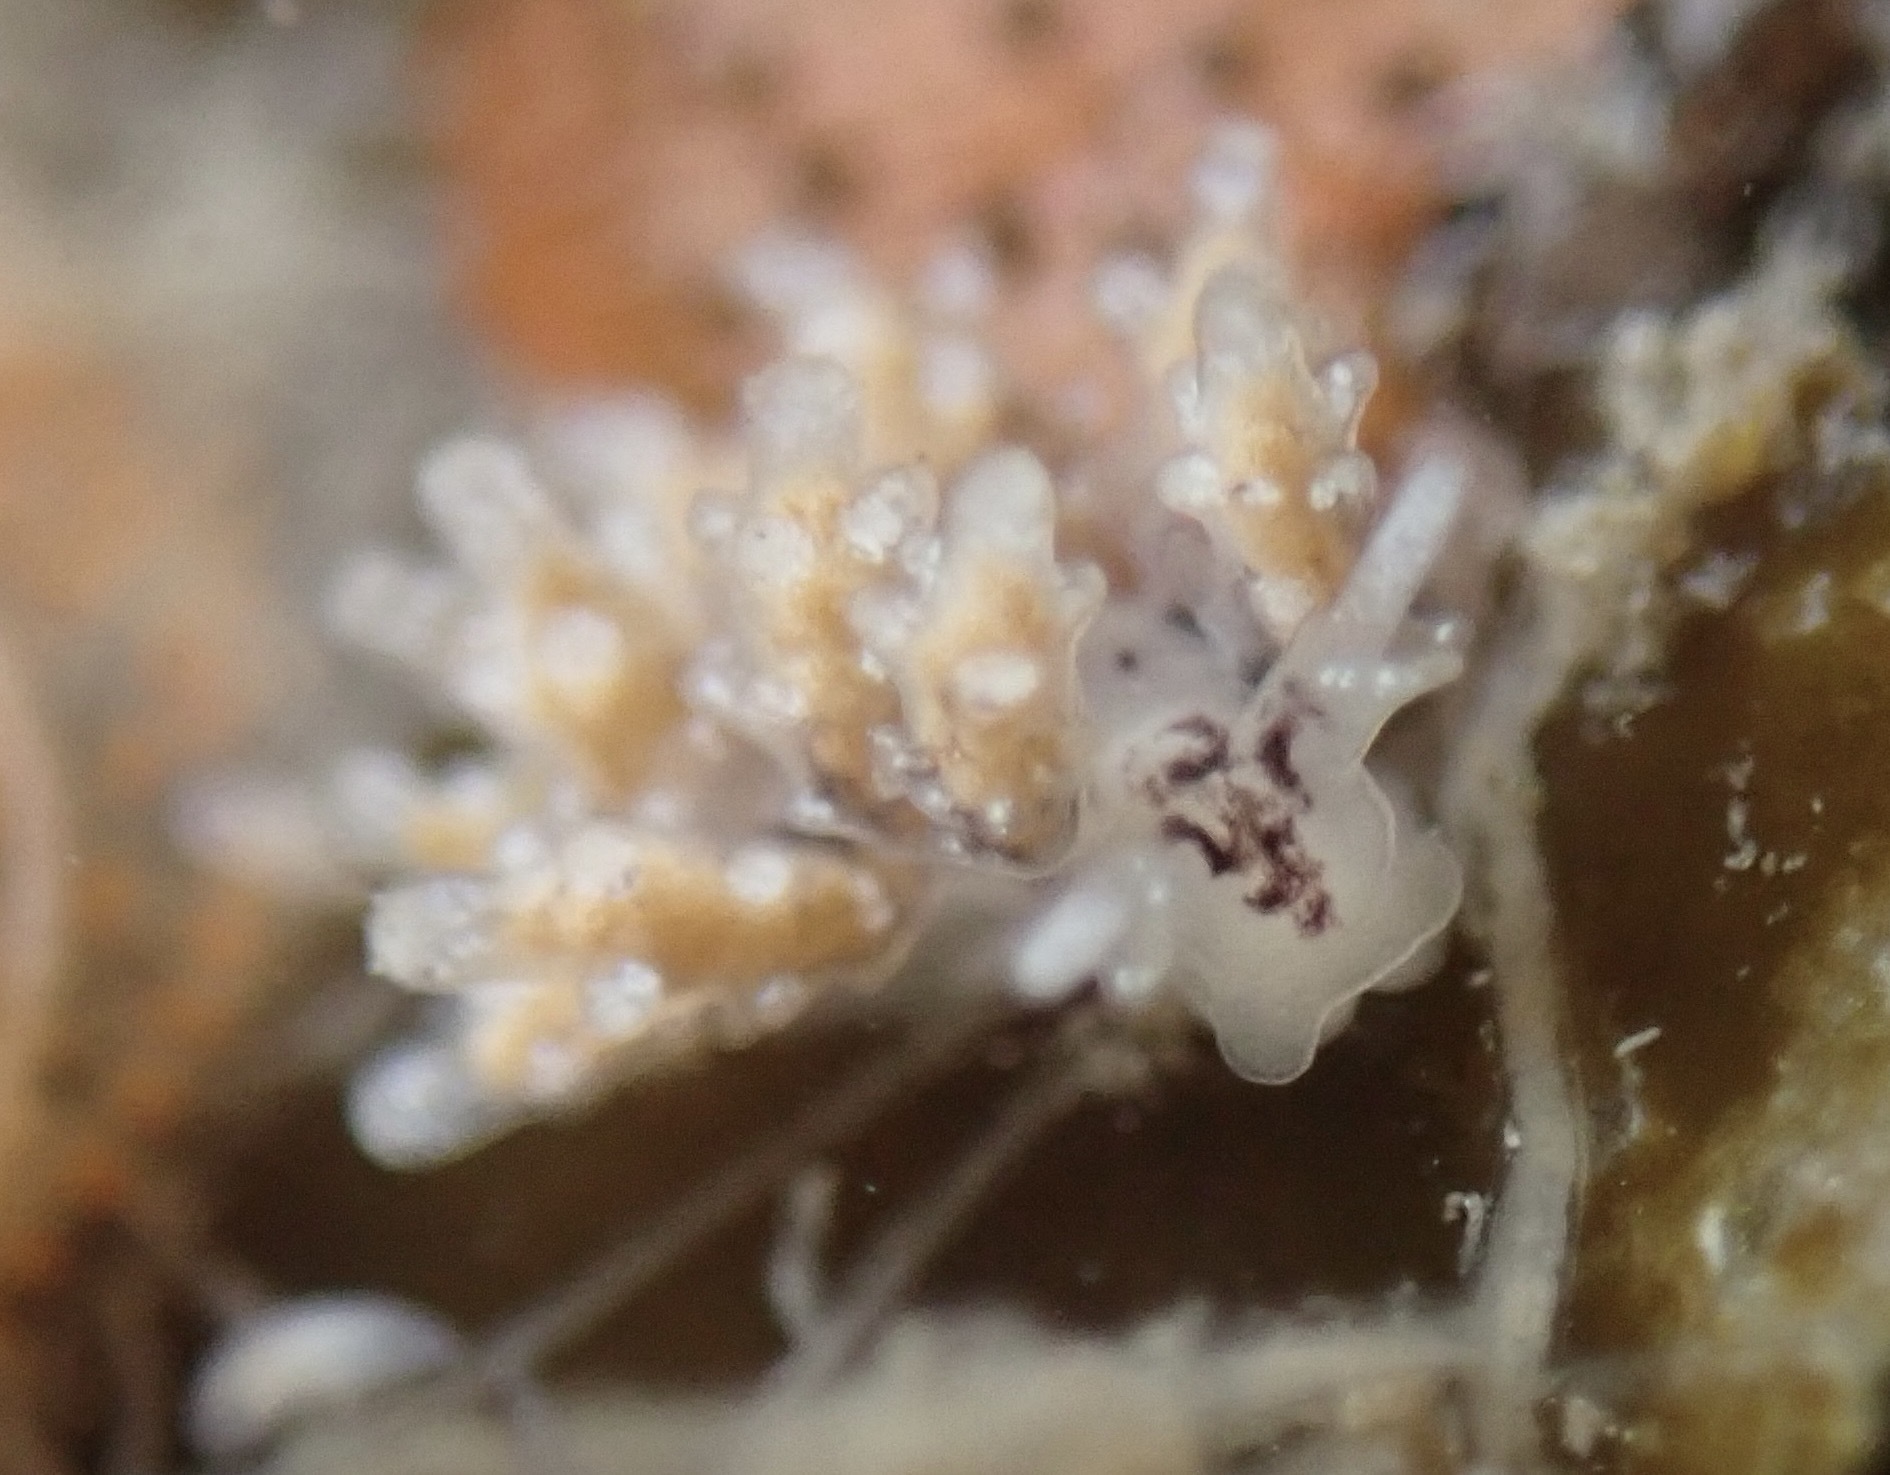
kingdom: Animalia
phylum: Mollusca
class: Gastropoda
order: Nudibranchia
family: Dotidae
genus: Doto
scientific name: Doto kya
